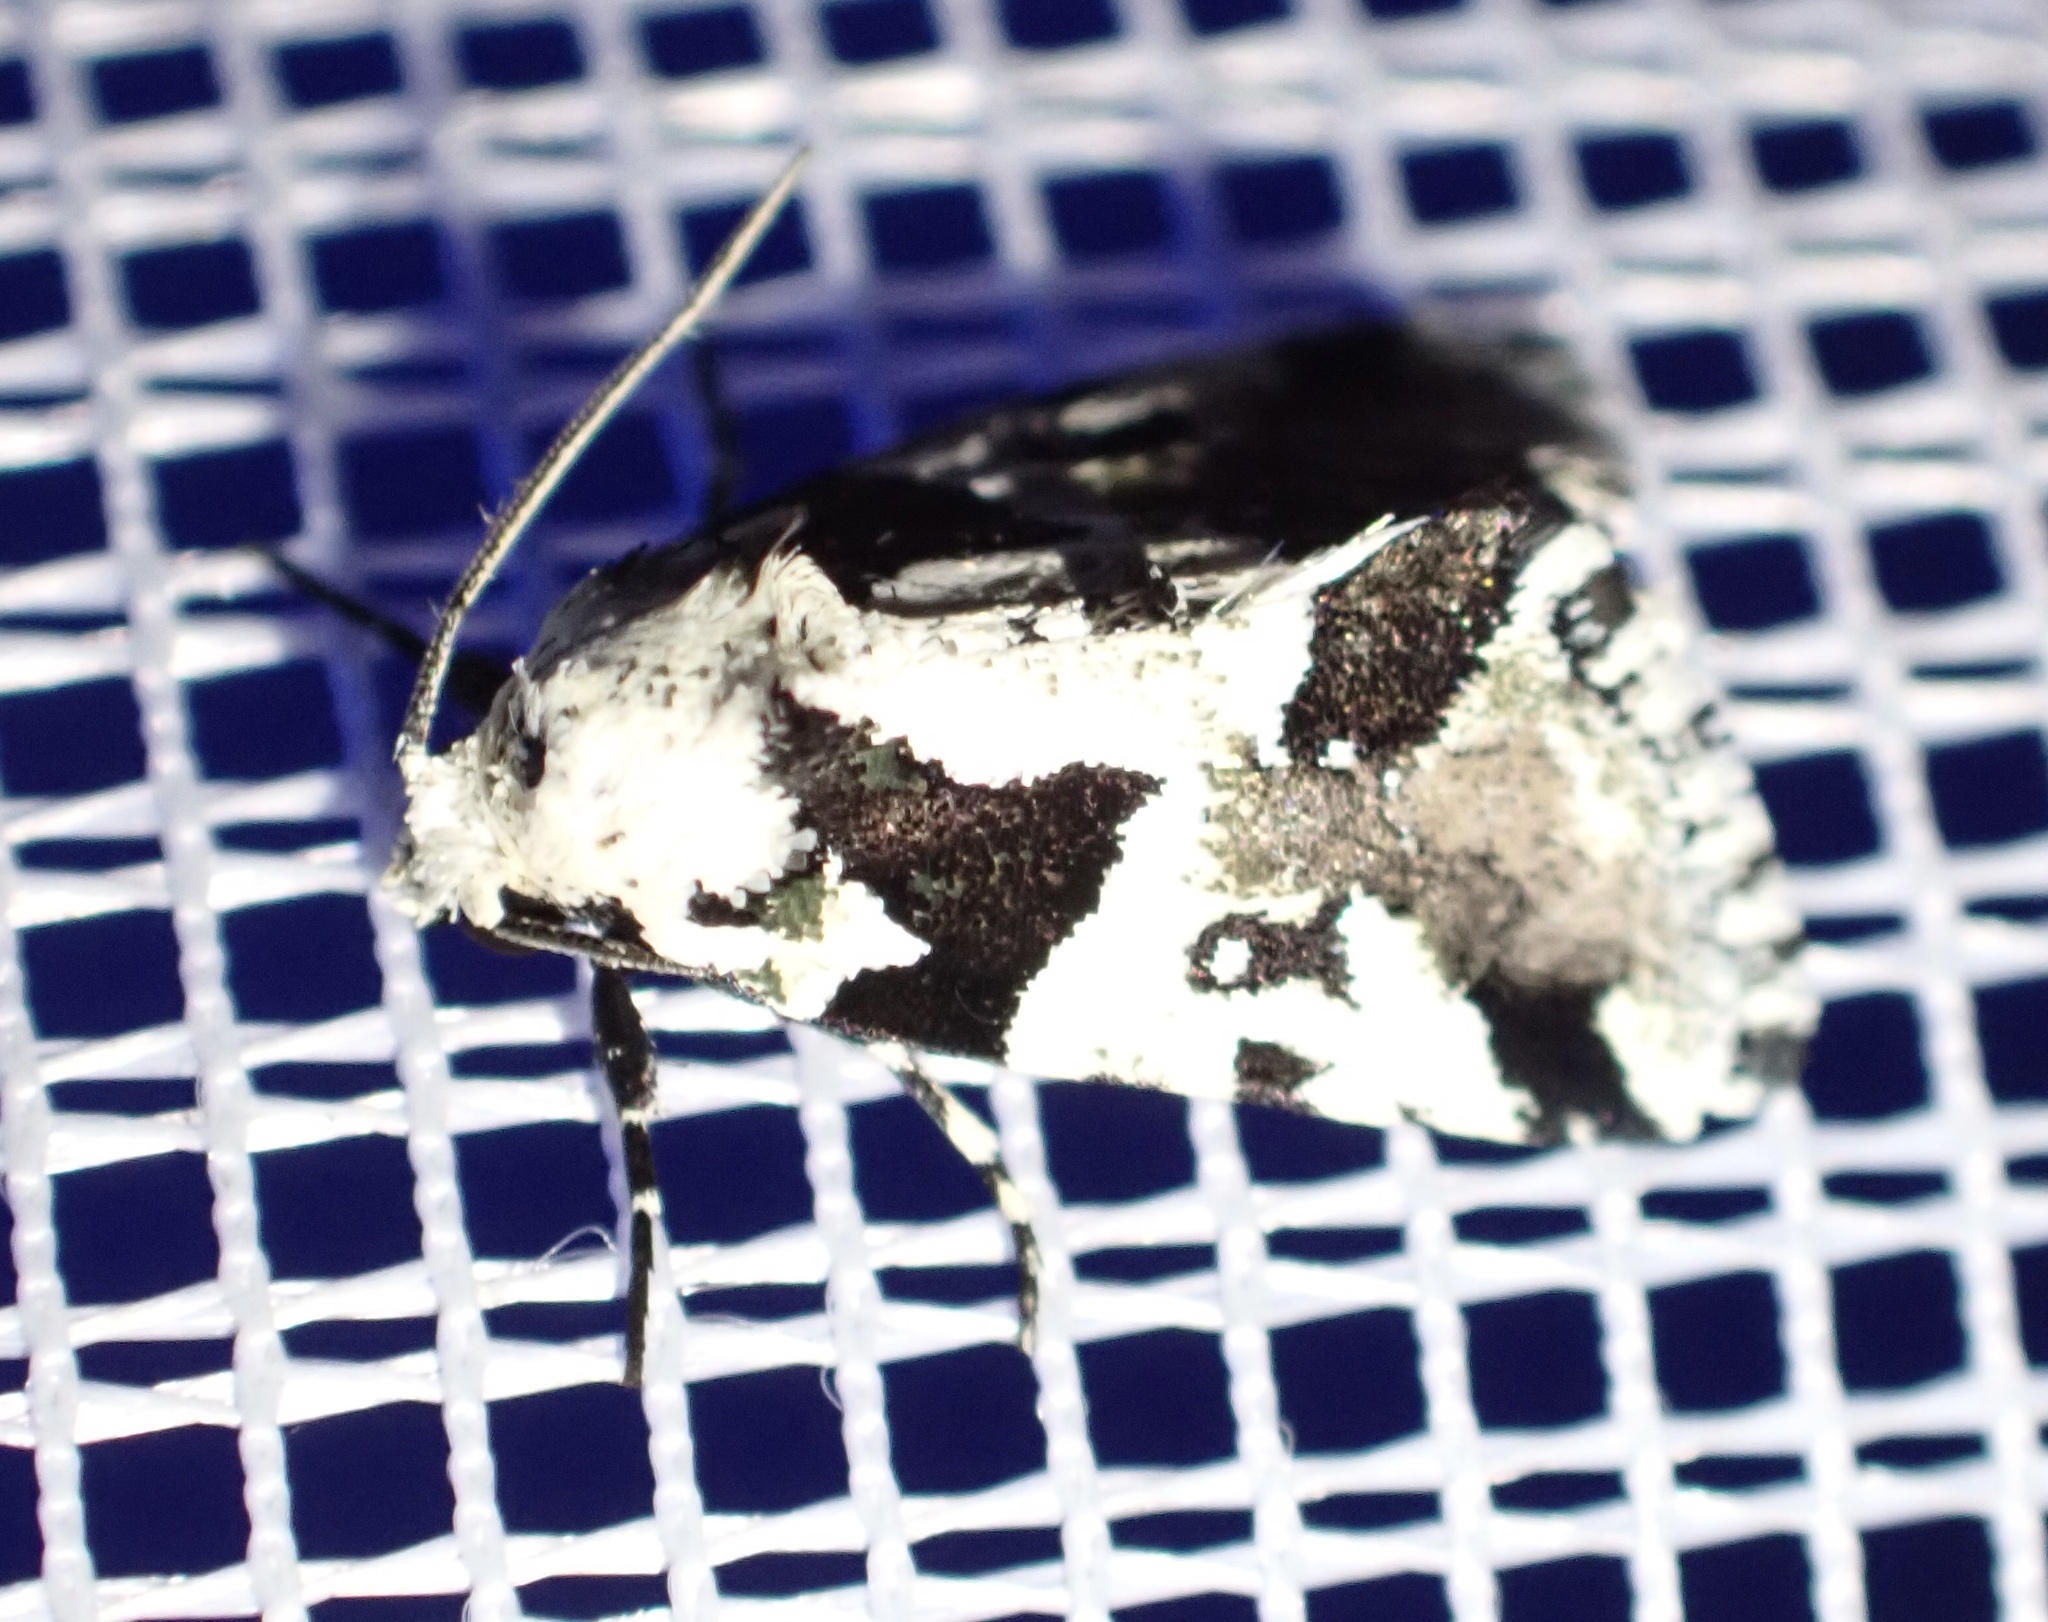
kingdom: Animalia
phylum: Arthropoda
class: Insecta
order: Lepidoptera
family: Noctuidae
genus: Leucotrachea
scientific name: Leucotrachea melanodonta
